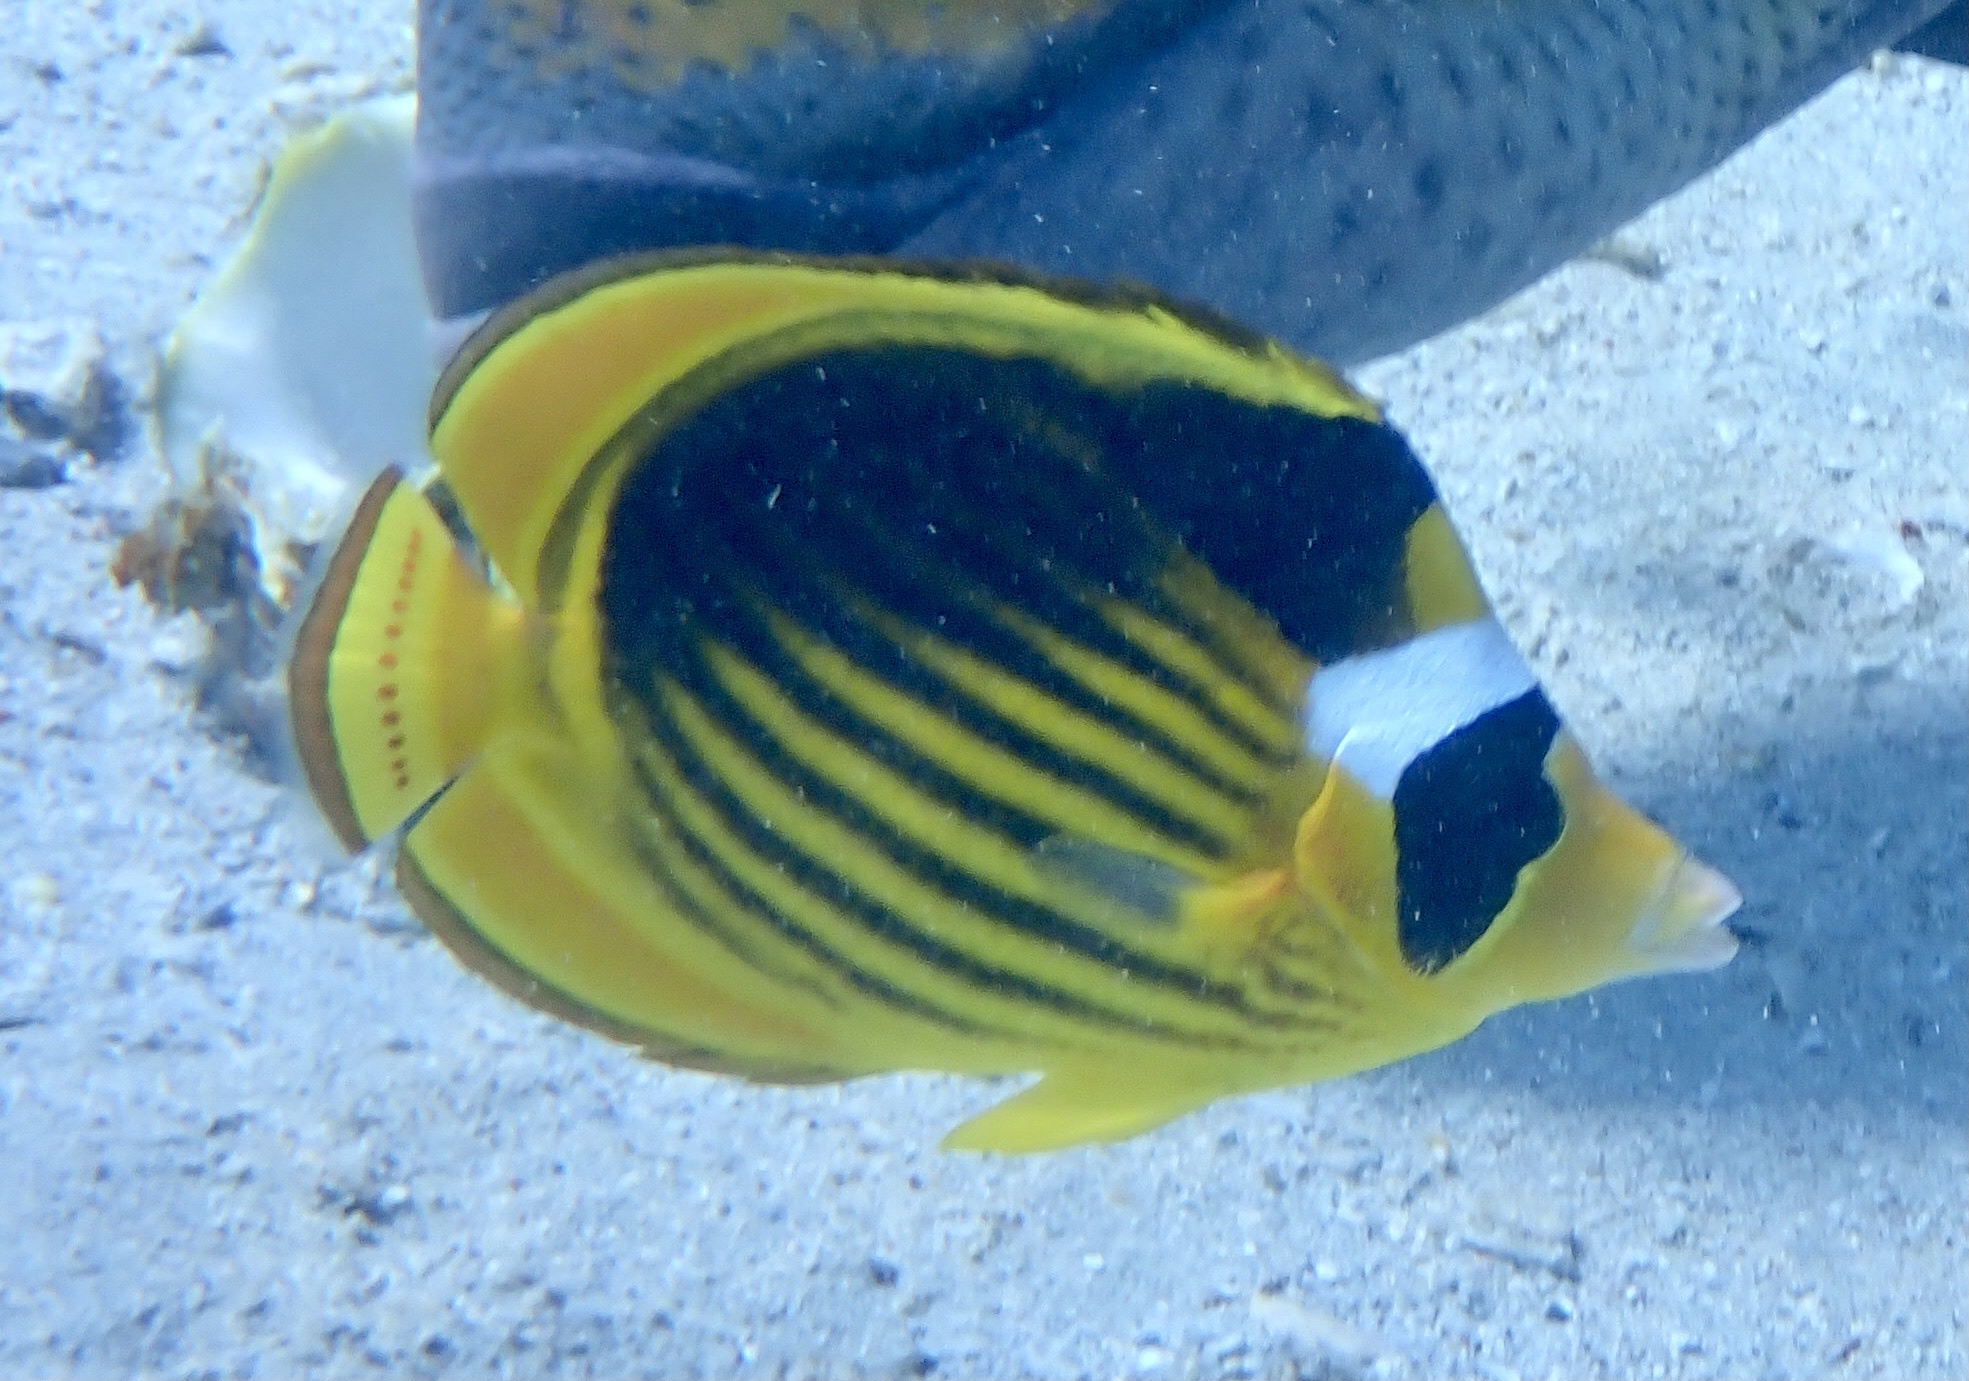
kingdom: Animalia
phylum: Chordata
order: Perciformes
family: Chaetodontidae
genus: Chaetodon
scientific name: Chaetodon fasciatus
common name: Diagonal butterflyfish
